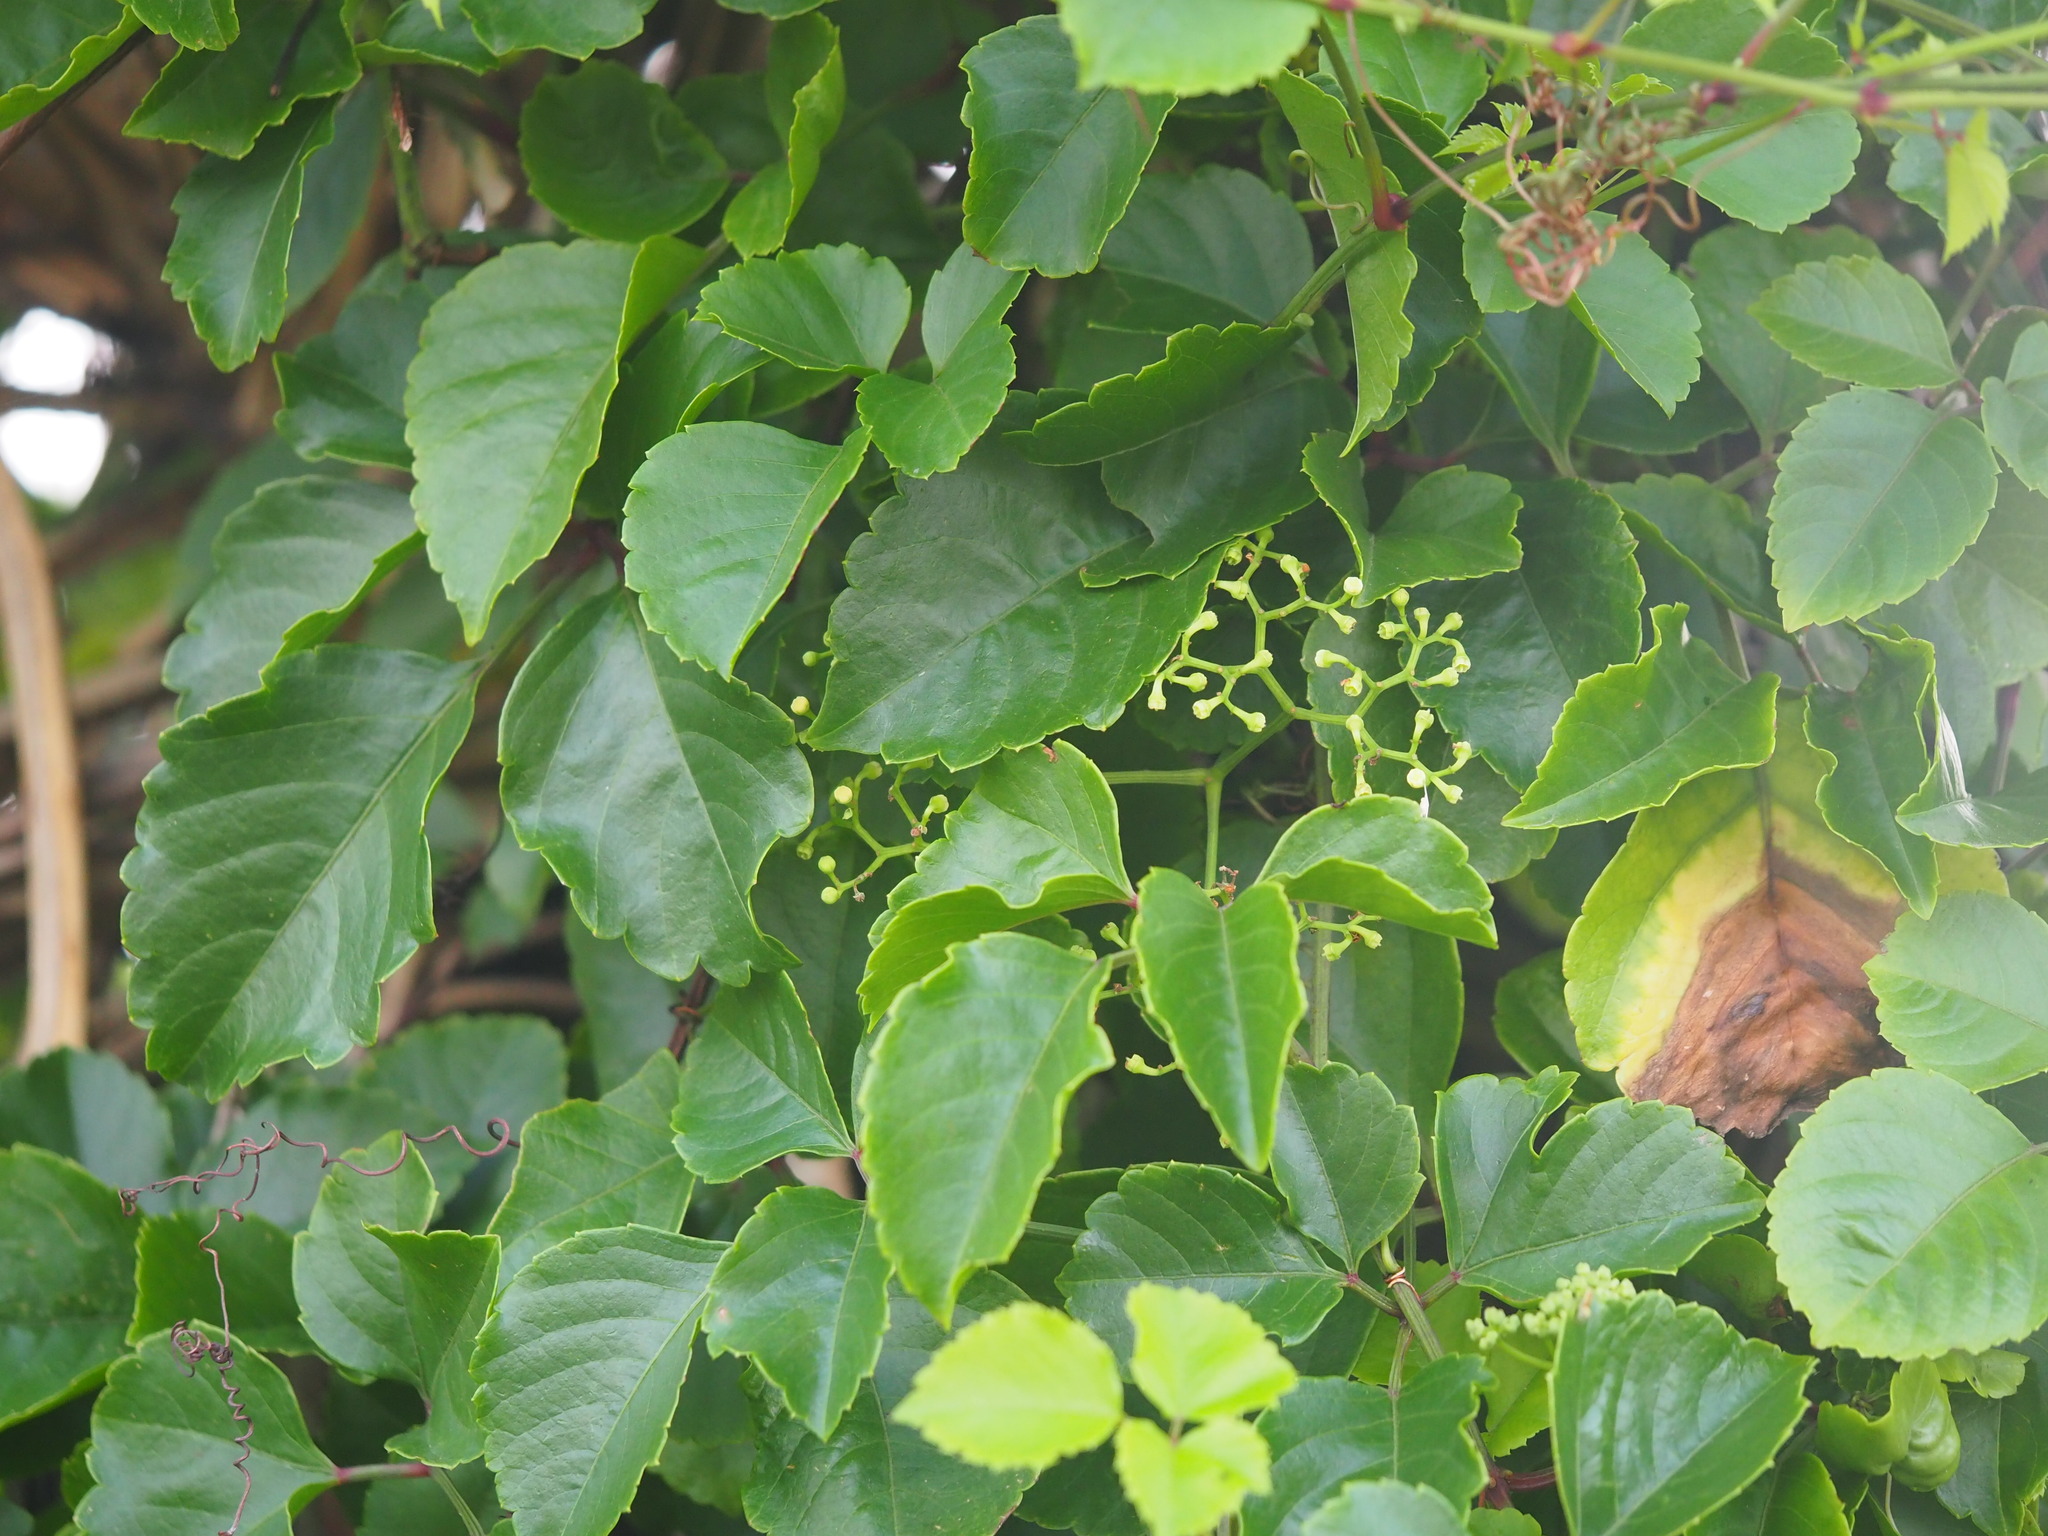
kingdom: Plantae
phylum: Tracheophyta
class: Magnoliopsida
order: Vitales
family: Vitaceae
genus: Causonis
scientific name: Causonis maritima
